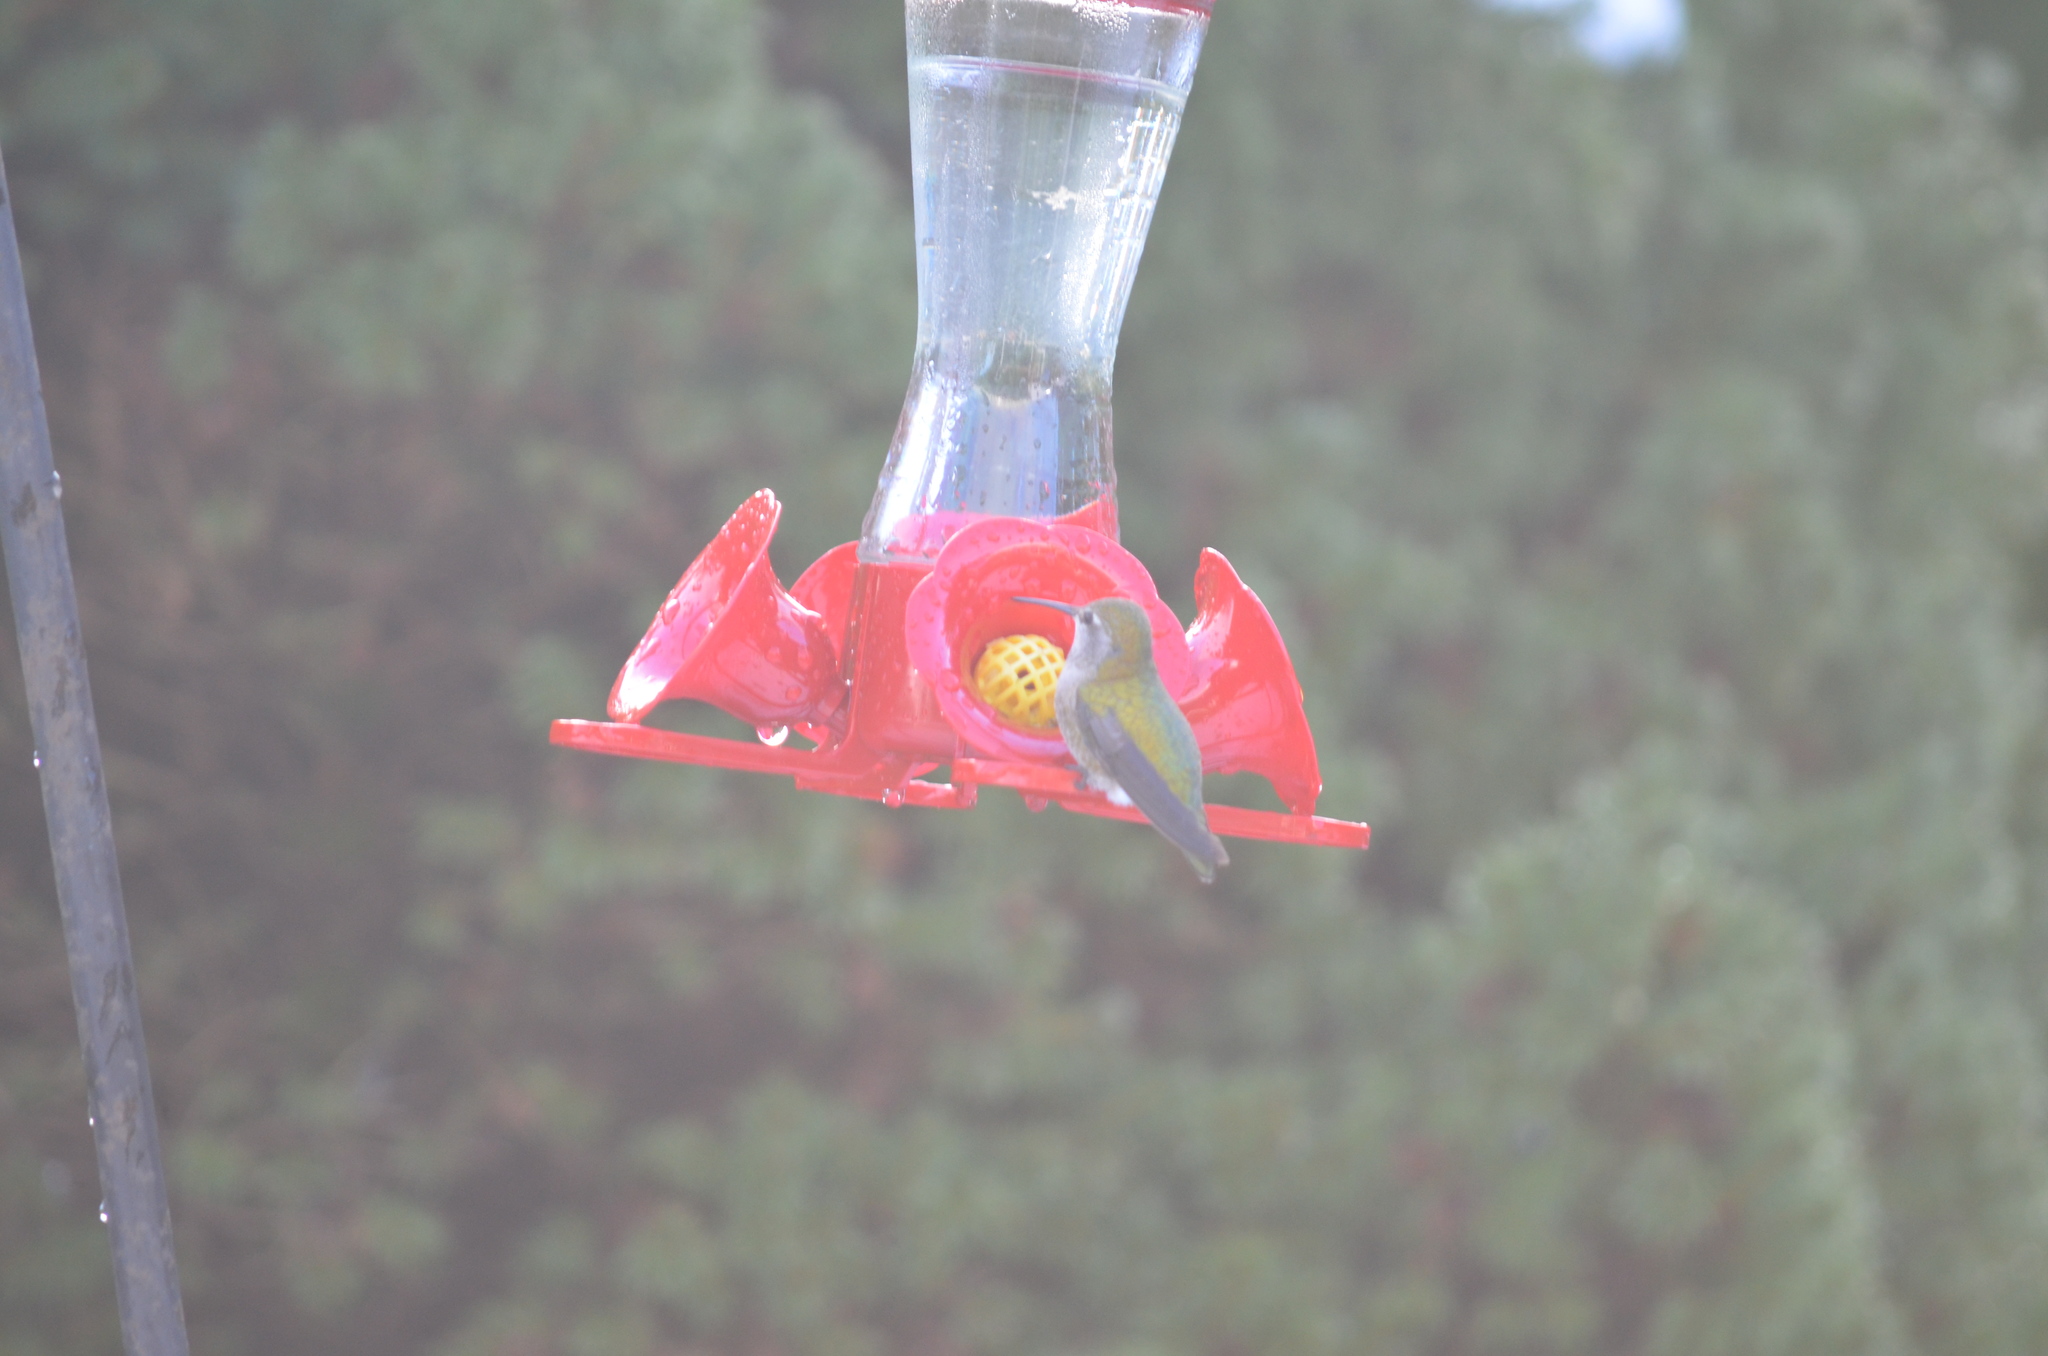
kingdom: Animalia
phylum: Chordata
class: Aves
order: Apodiformes
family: Trochilidae
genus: Calypte
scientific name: Calypte anna
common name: Anna's hummingbird
